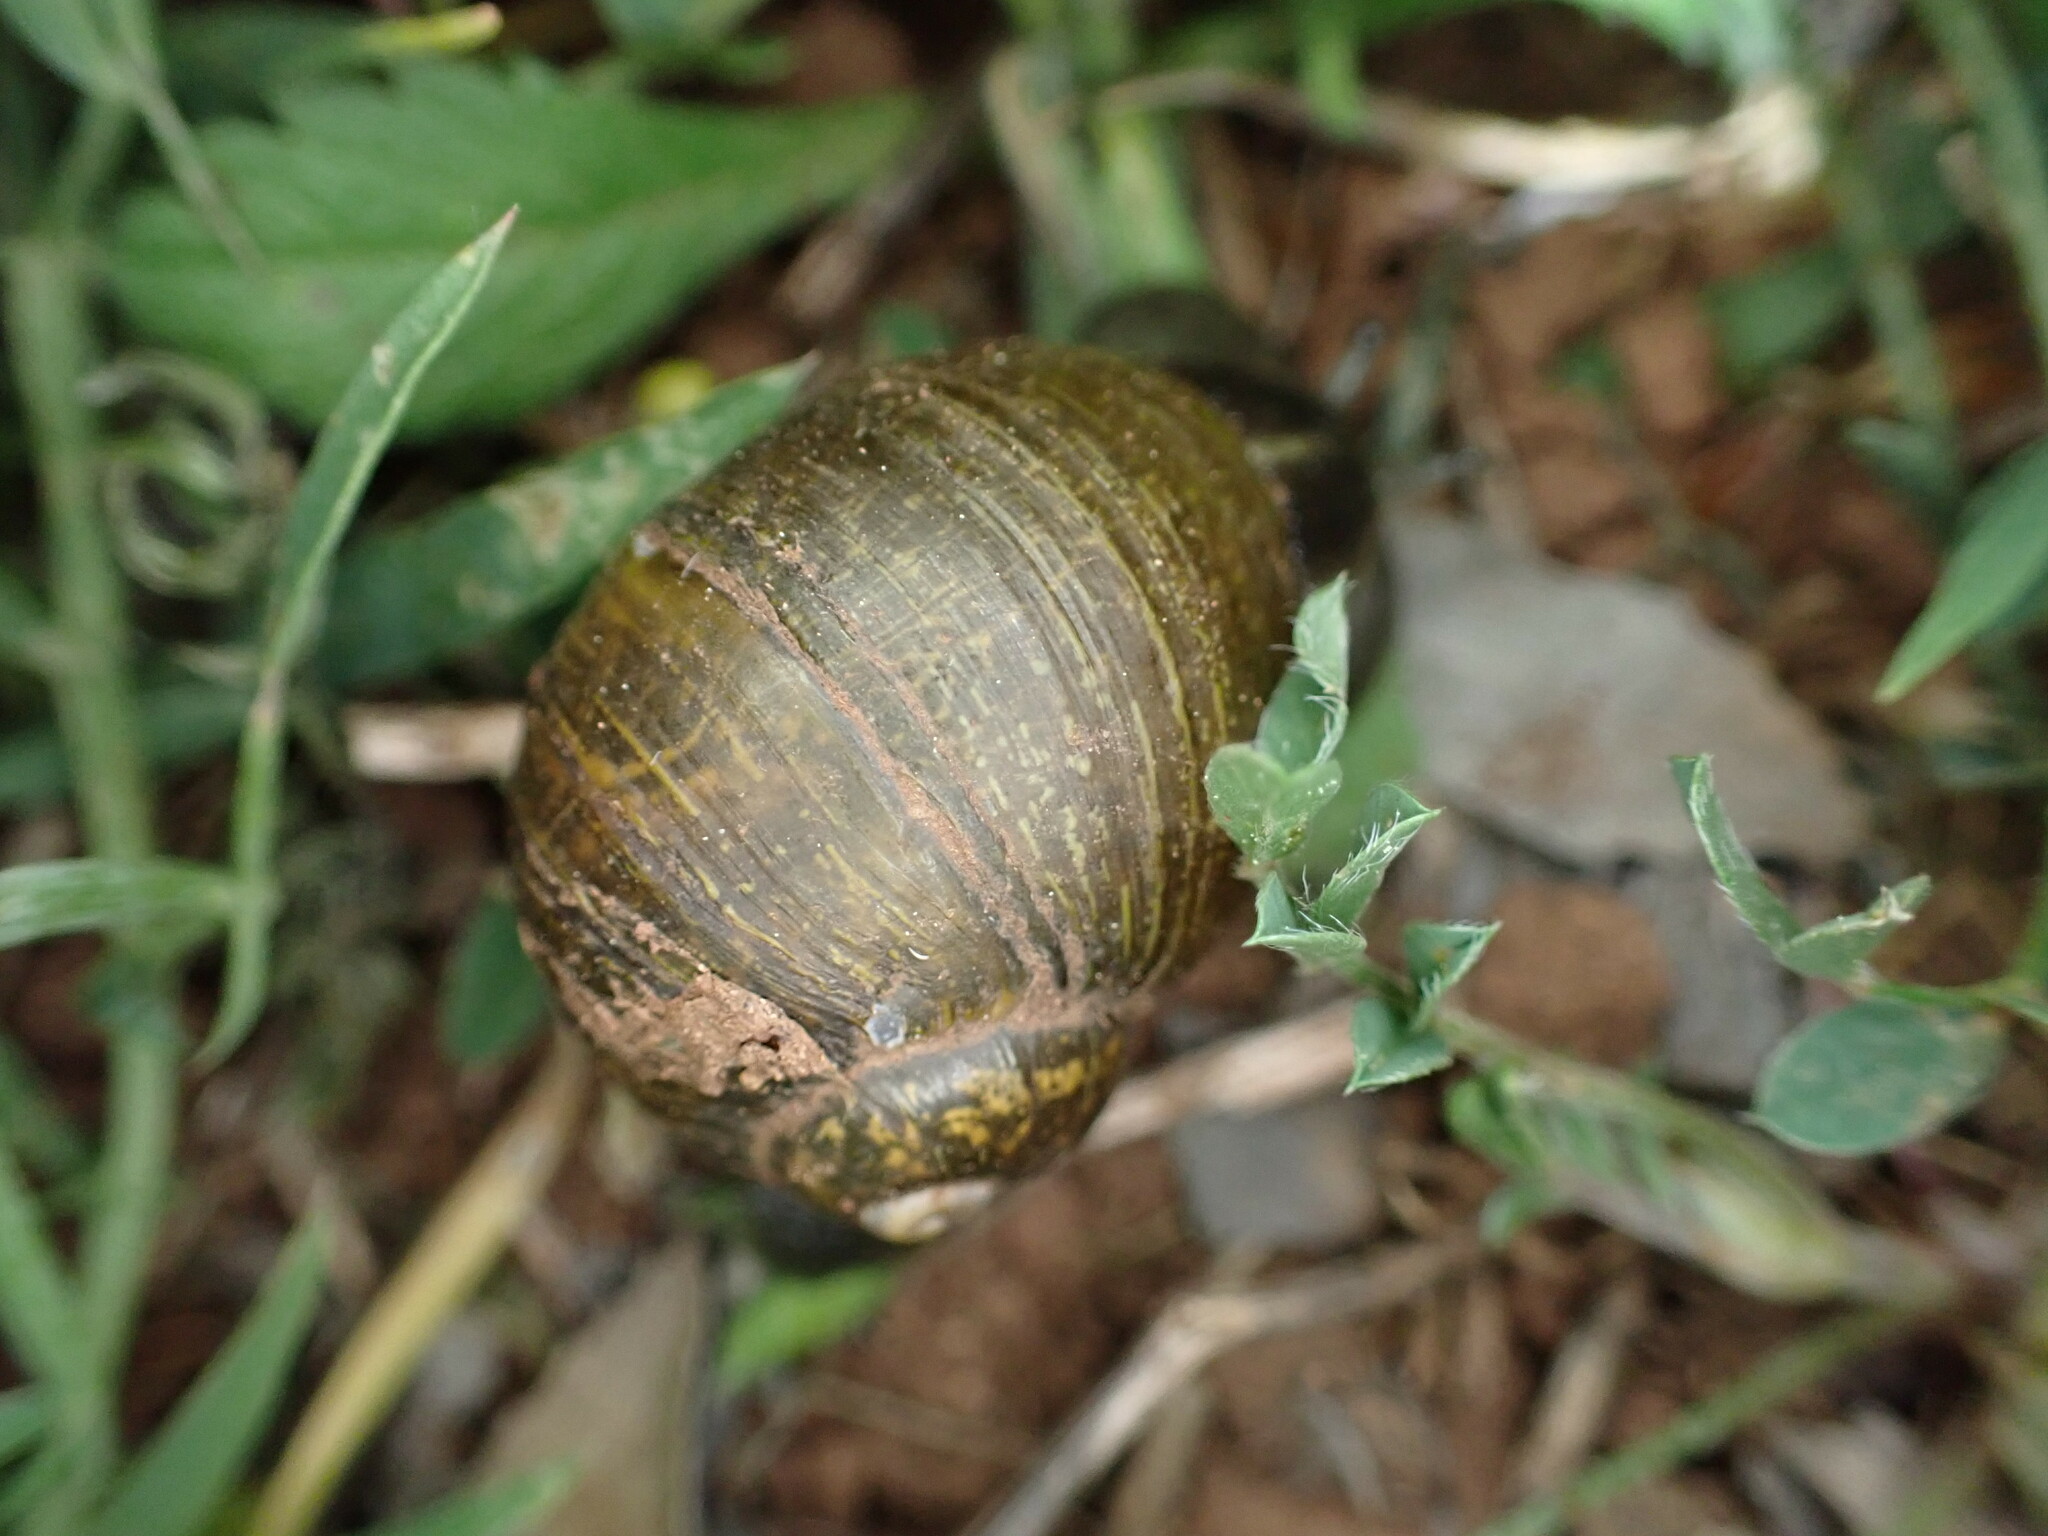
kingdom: Animalia
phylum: Mollusca
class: Gastropoda
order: Stylommatophora
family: Helicidae
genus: Cantareus
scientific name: Cantareus apertus
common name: Green gardensnail
